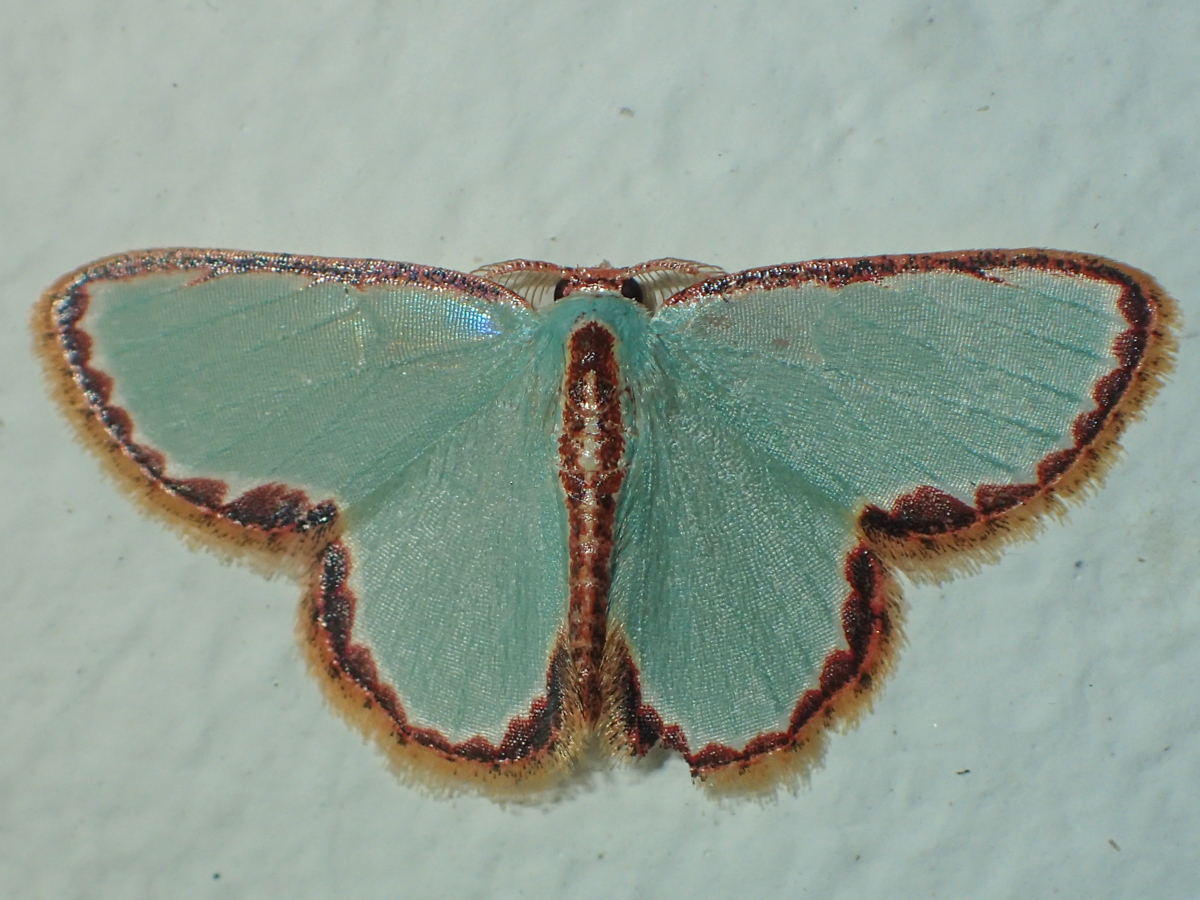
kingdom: Animalia
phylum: Arthropoda
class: Insecta
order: Lepidoptera
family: Geometridae
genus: Comostola
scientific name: Comostola turgescens
